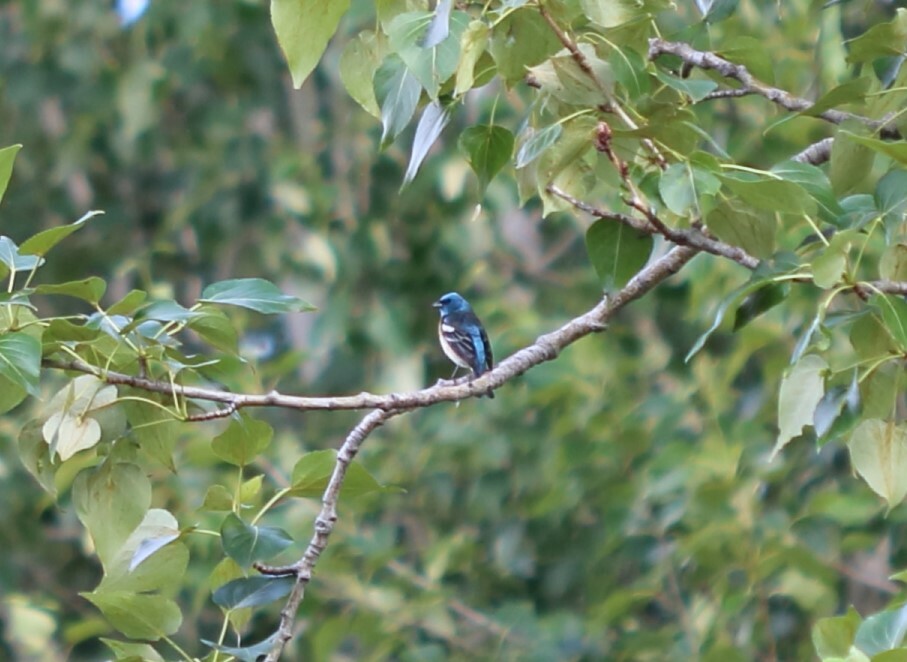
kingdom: Animalia
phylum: Chordata
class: Aves
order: Passeriformes
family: Cardinalidae
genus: Passerina
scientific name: Passerina amoena
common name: Lazuli bunting
